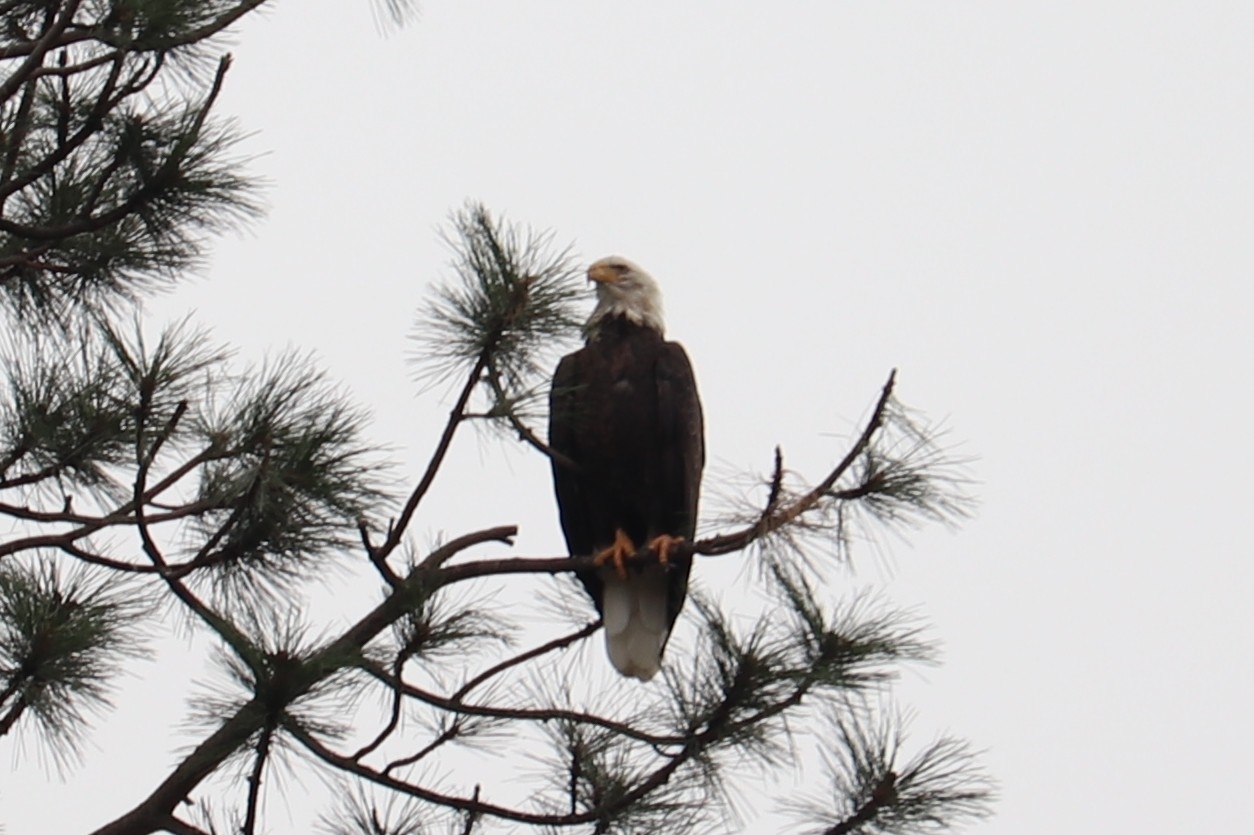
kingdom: Animalia
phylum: Chordata
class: Aves
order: Accipitriformes
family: Accipitridae
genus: Haliaeetus
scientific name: Haliaeetus leucocephalus
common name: Bald eagle
